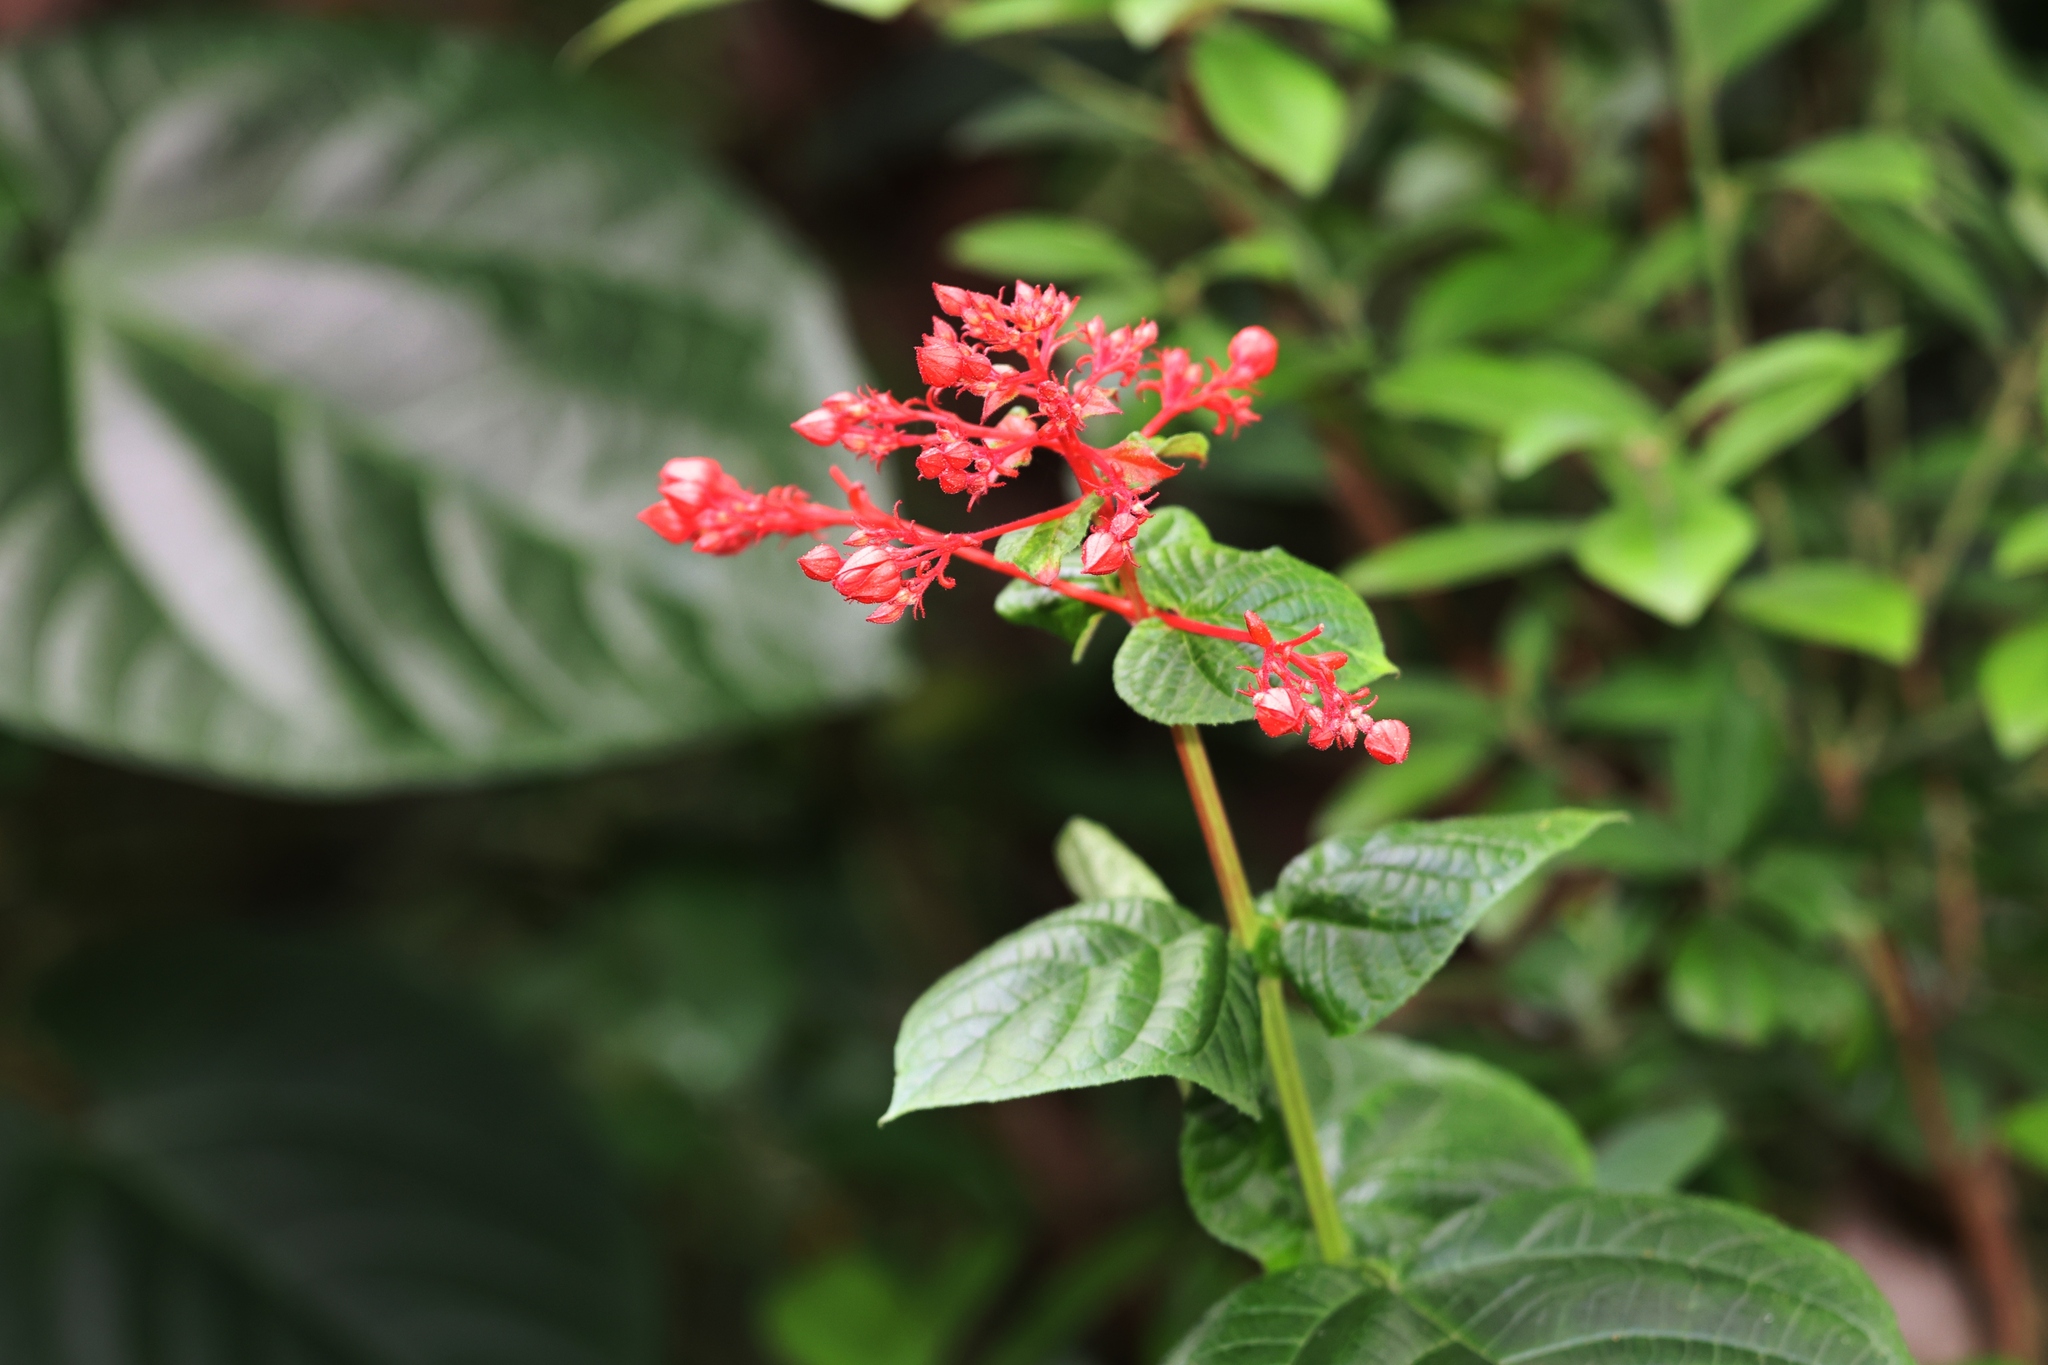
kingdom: Plantae
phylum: Tracheophyta
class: Magnoliopsida
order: Lamiales
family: Lamiaceae
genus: Clerodendrum
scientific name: Clerodendrum japonicum
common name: Japanese glorybower
